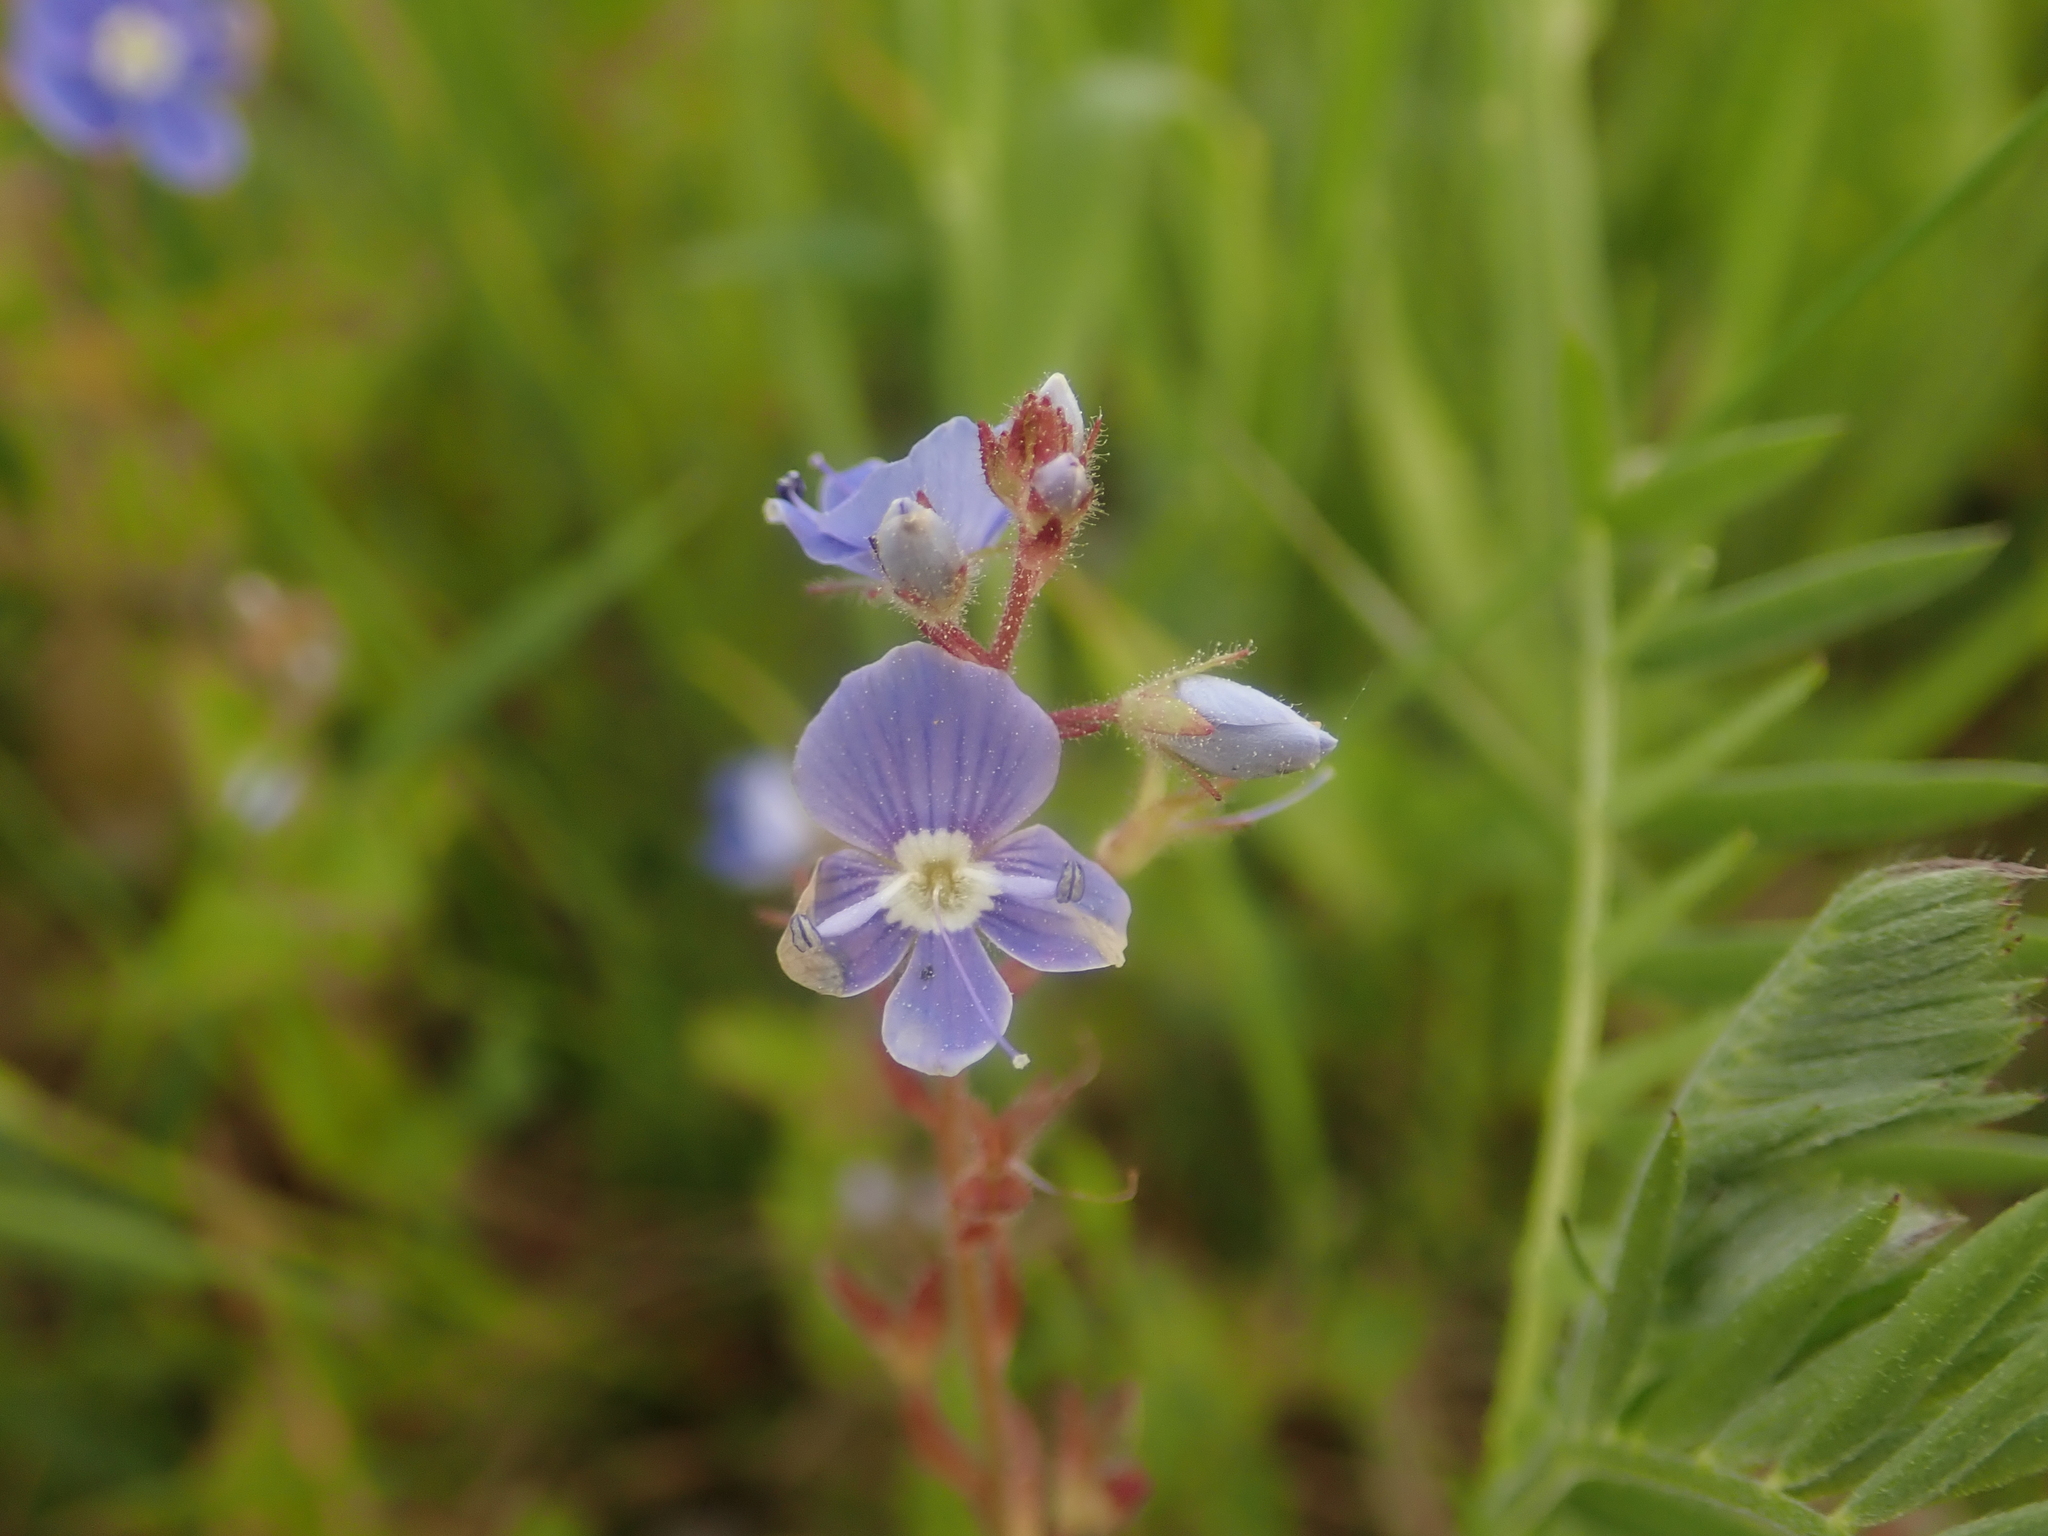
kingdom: Plantae
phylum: Tracheophyta
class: Magnoliopsida
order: Lamiales
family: Plantaginaceae
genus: Veronica
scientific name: Veronica chamaedrys
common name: Germander speedwell
